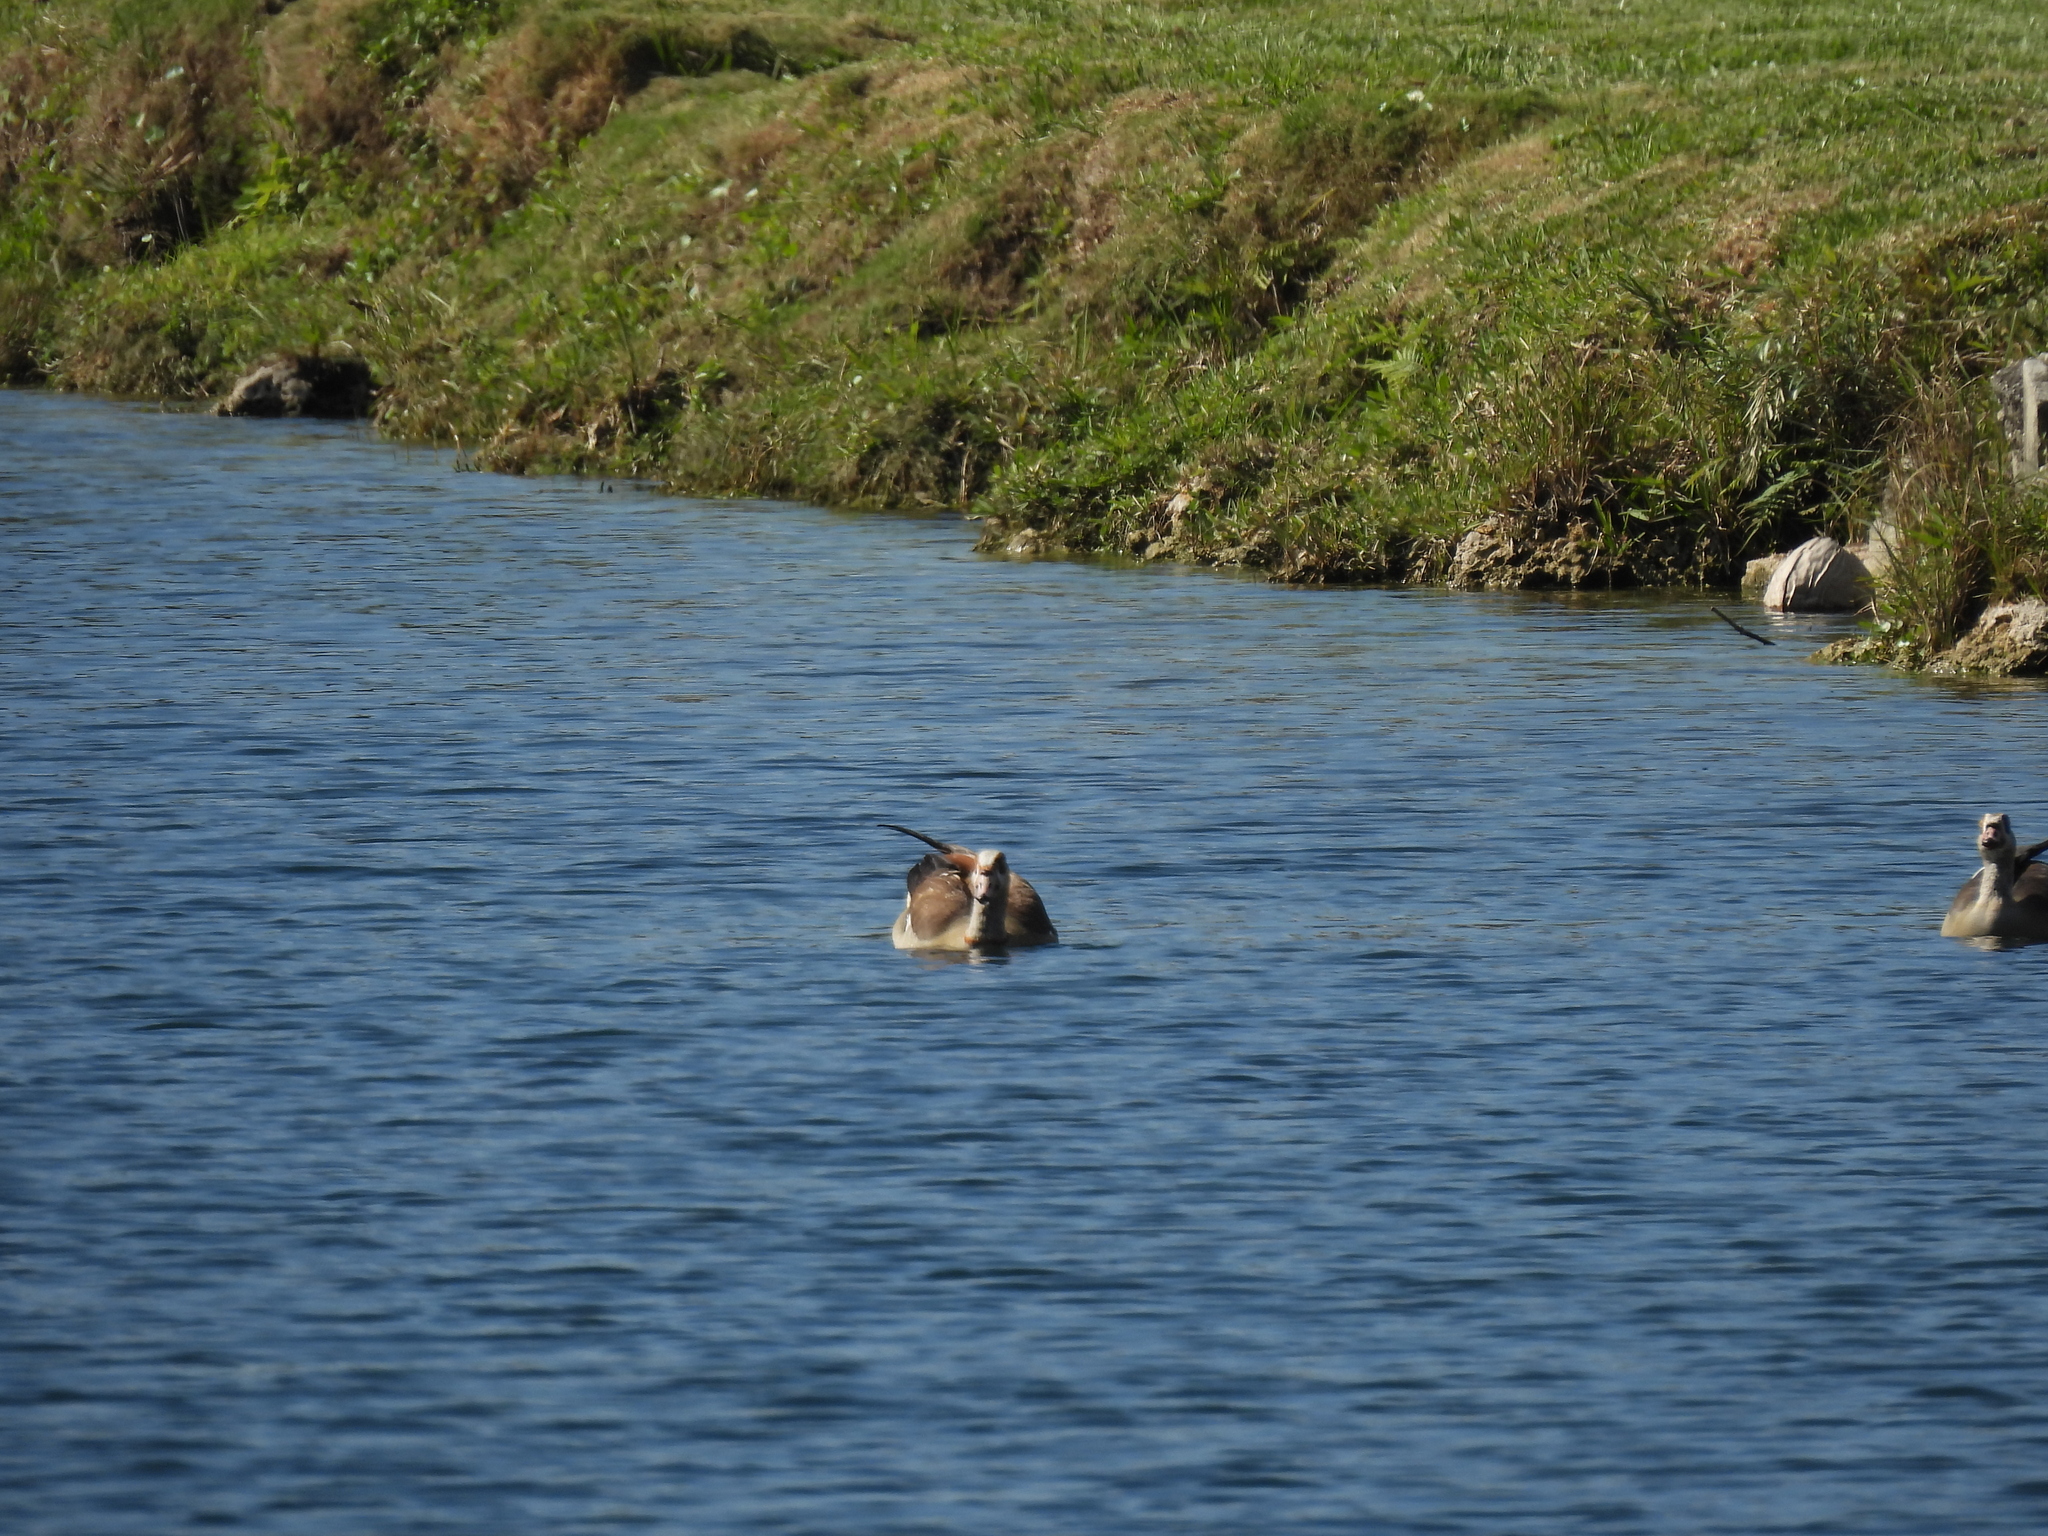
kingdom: Animalia
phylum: Chordata
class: Aves
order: Anseriformes
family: Anatidae
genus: Alopochen
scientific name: Alopochen aegyptiaca
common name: Egyptian goose
